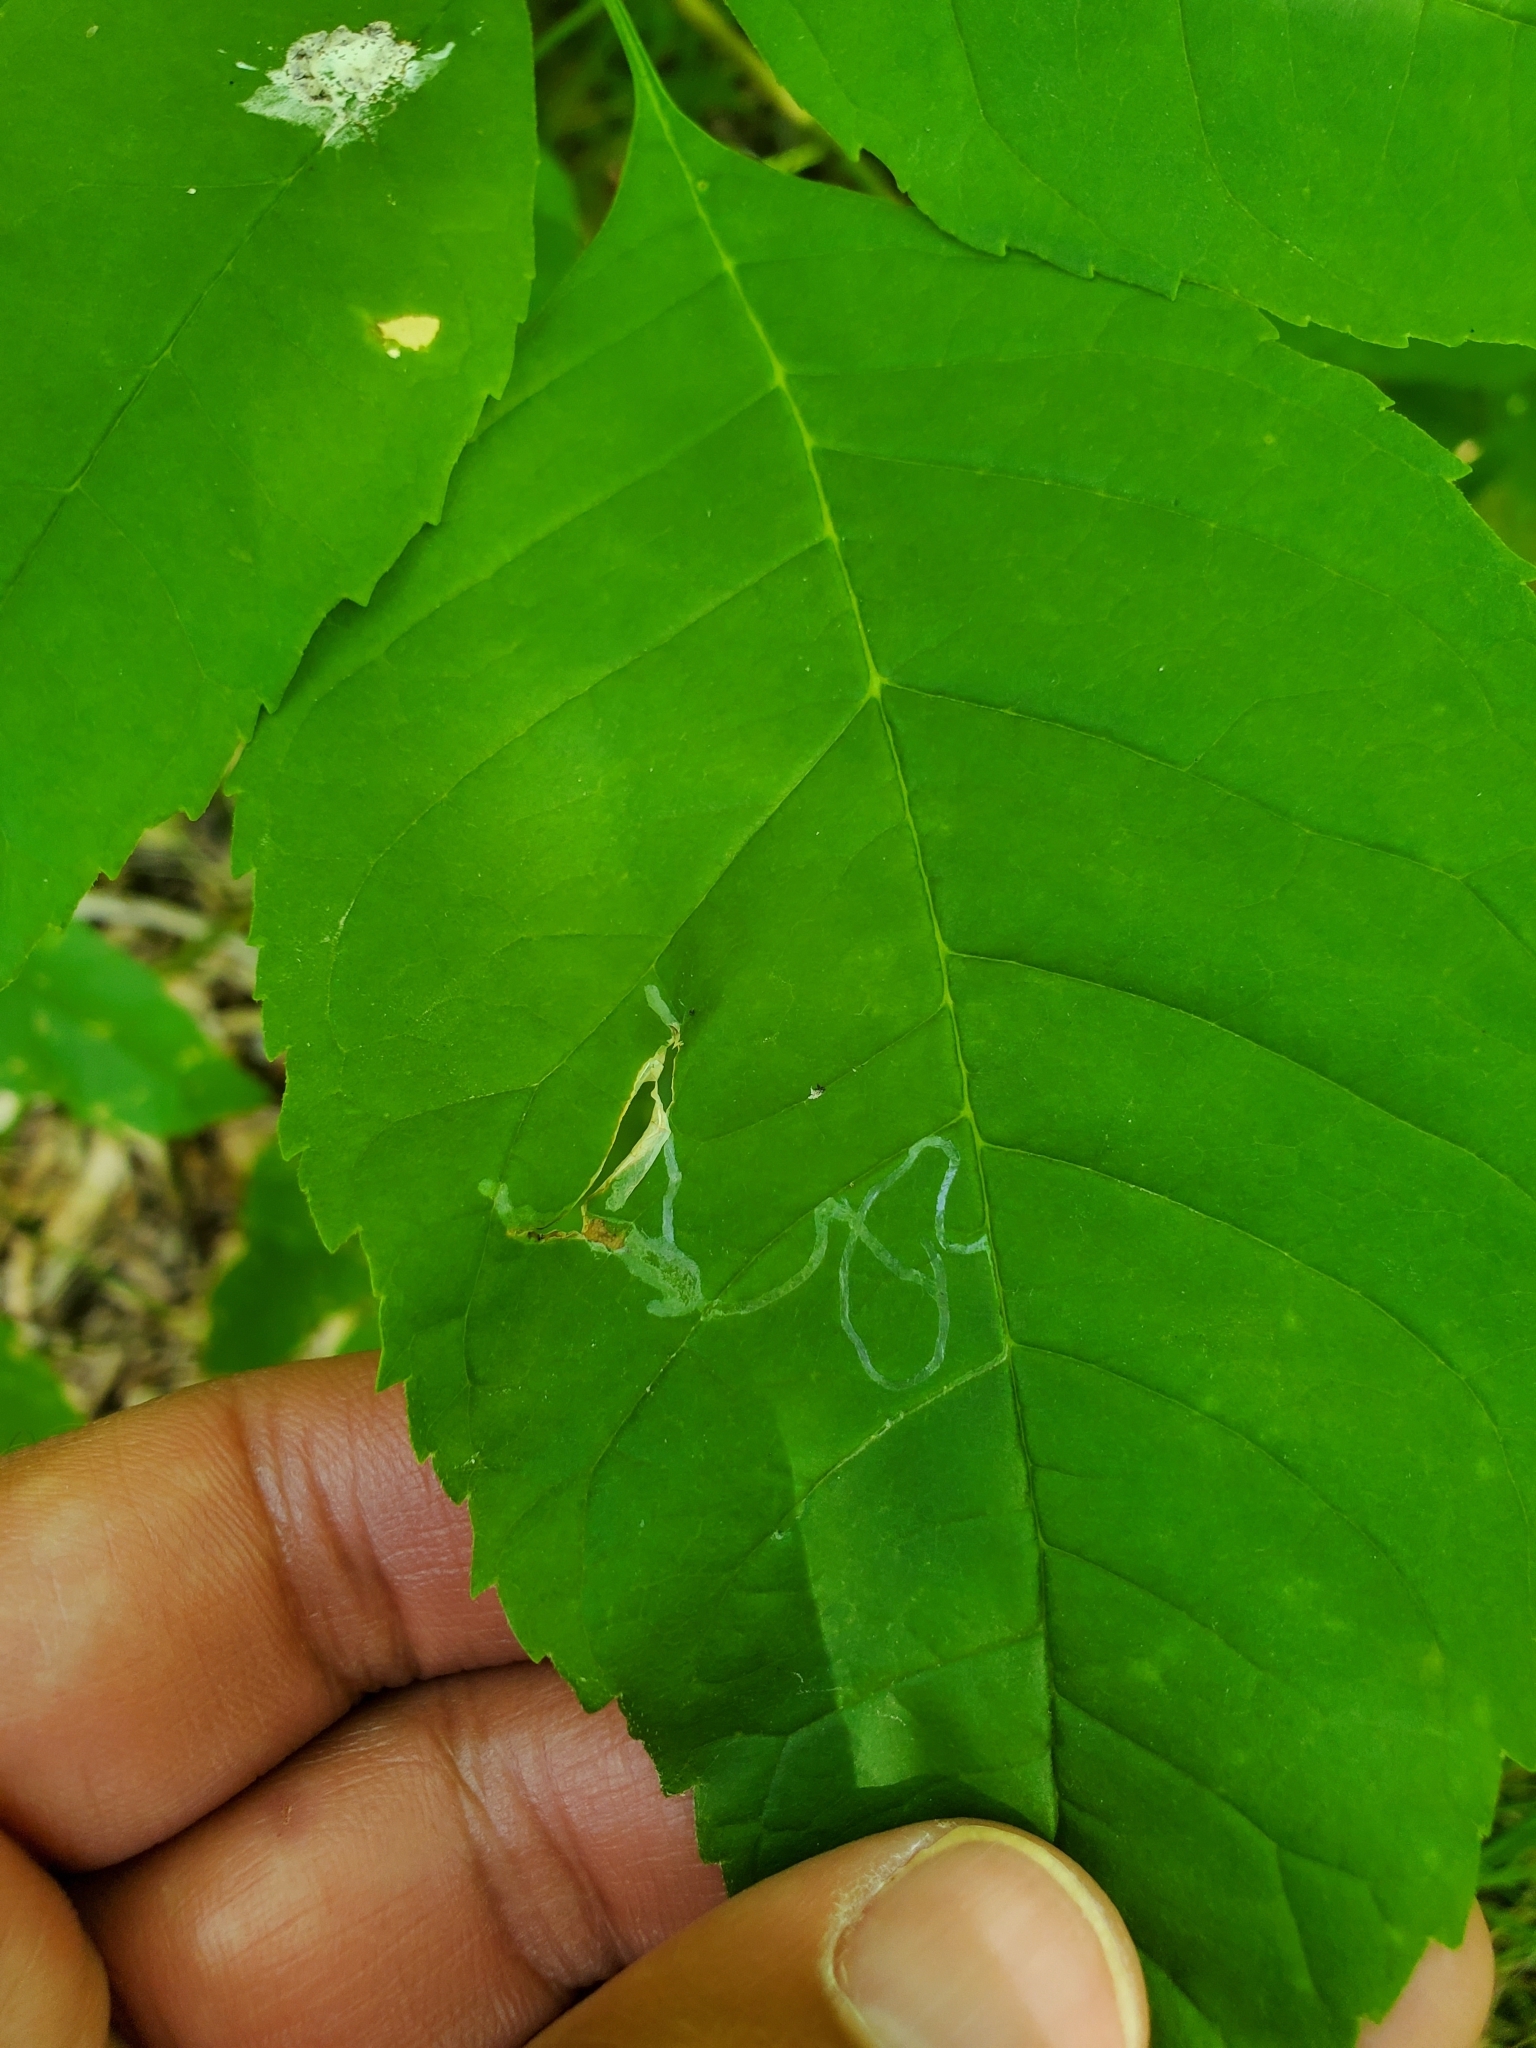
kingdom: Animalia
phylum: Arthropoda
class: Insecta
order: Lepidoptera
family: Gracillariidae
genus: Caloptilia
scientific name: Caloptilia fraxinella
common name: Ash leaf cone roller
